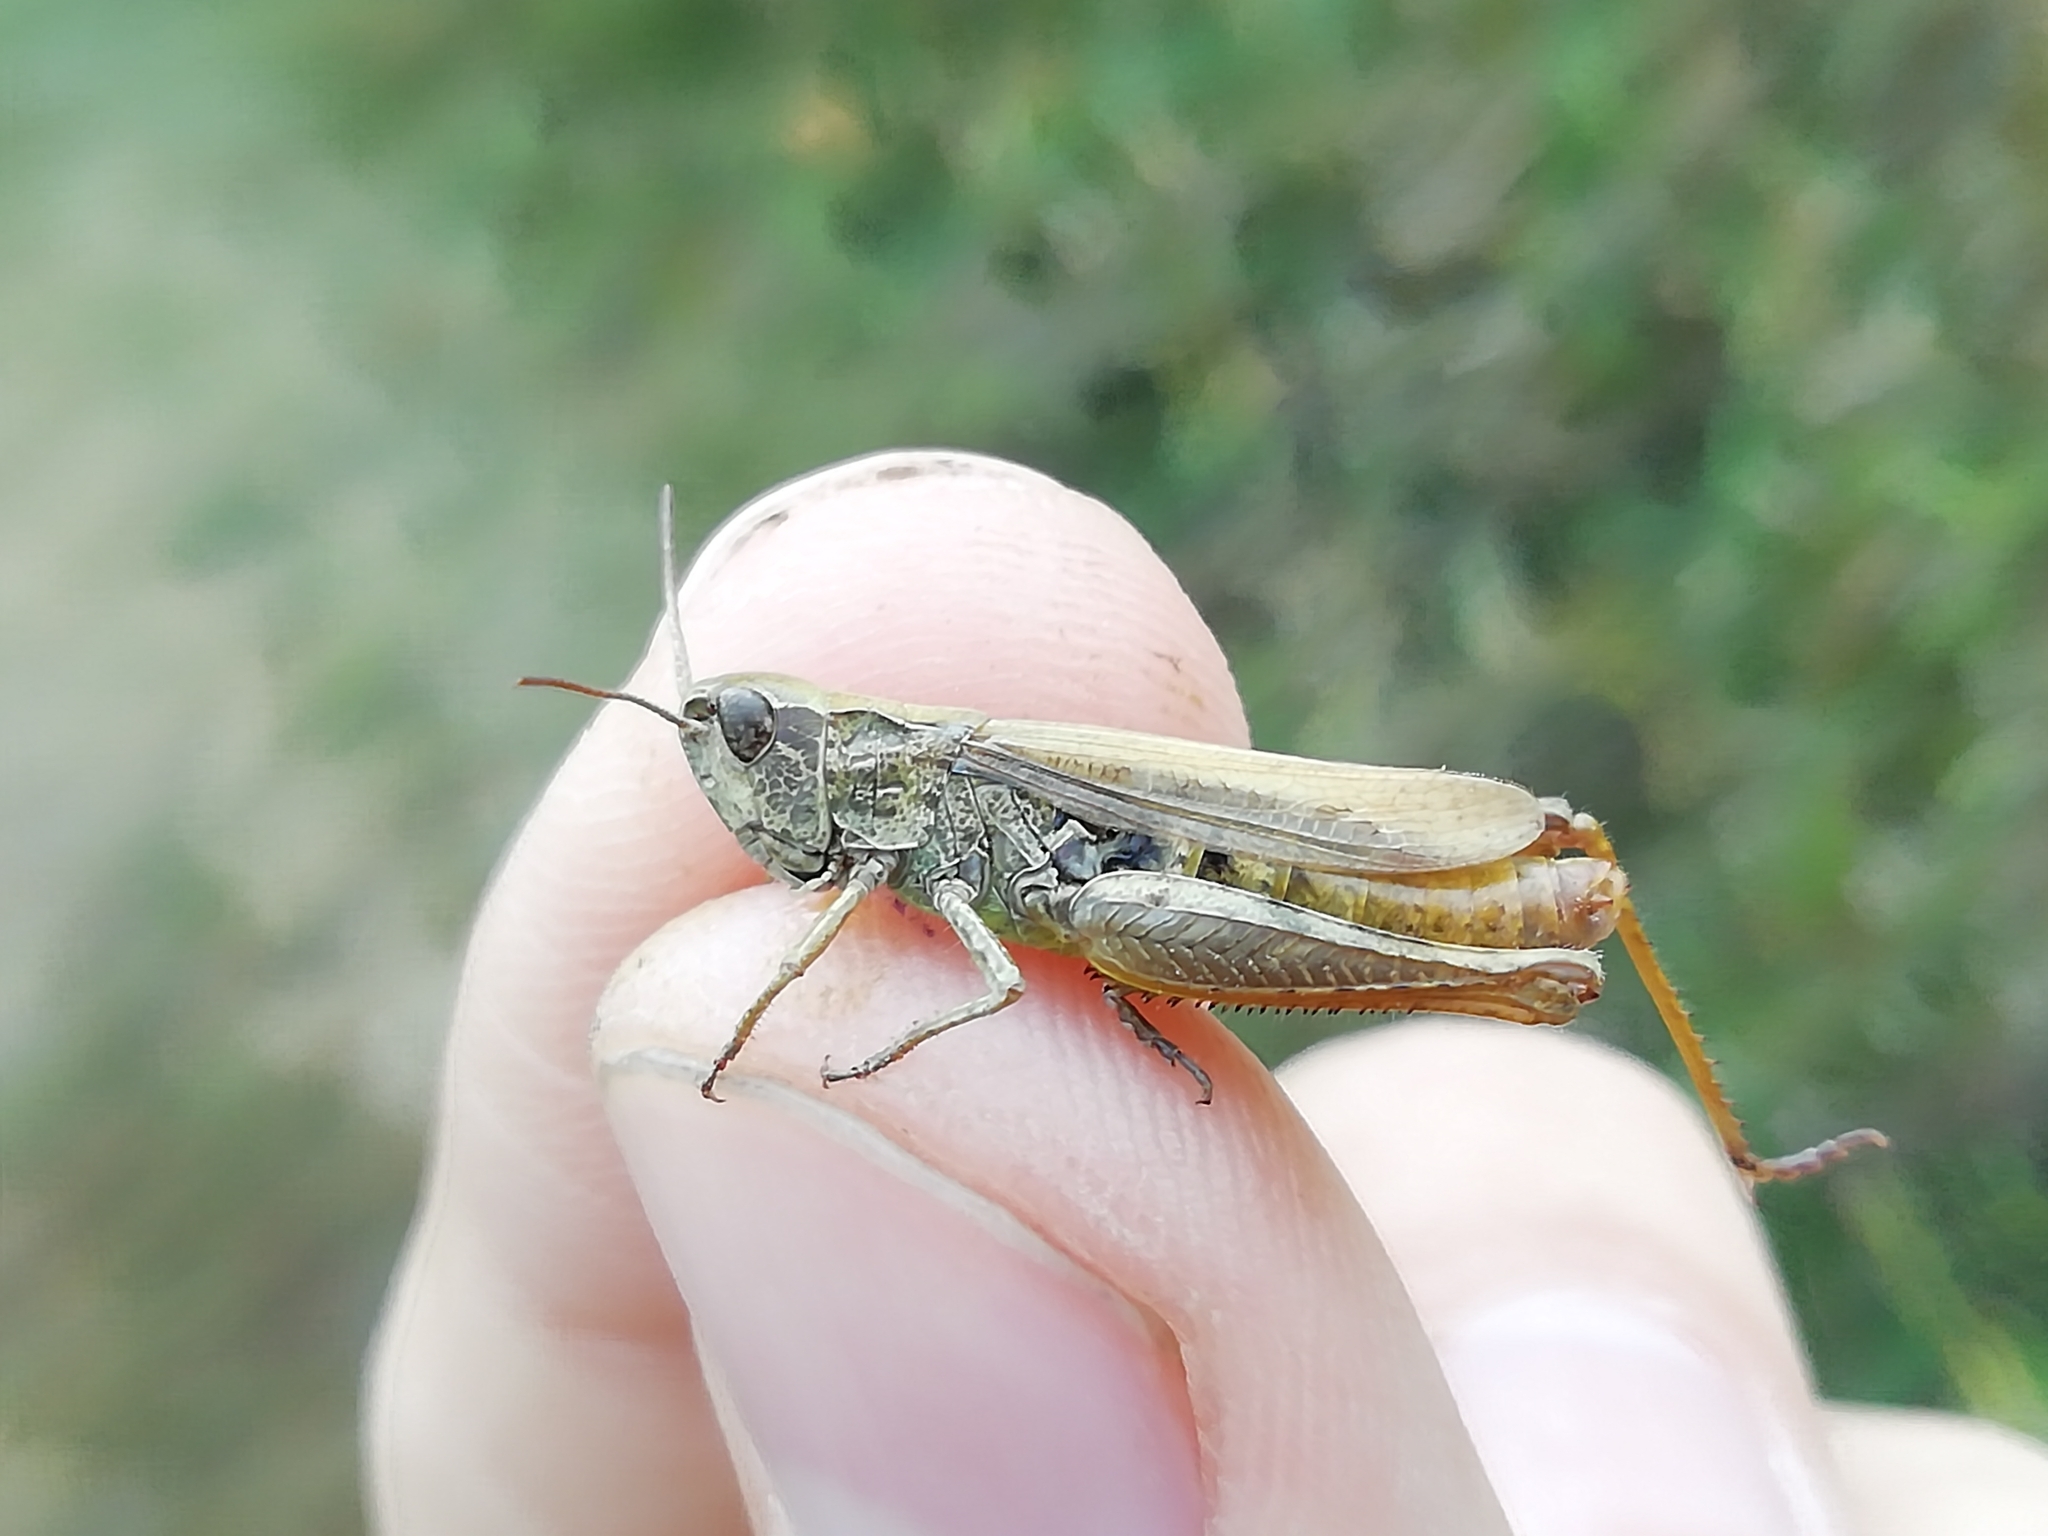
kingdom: Animalia
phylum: Arthropoda
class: Insecta
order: Orthoptera
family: Acrididae
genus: Chorthippus
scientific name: Chorthippus apricarius
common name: Upland field grasshopper
